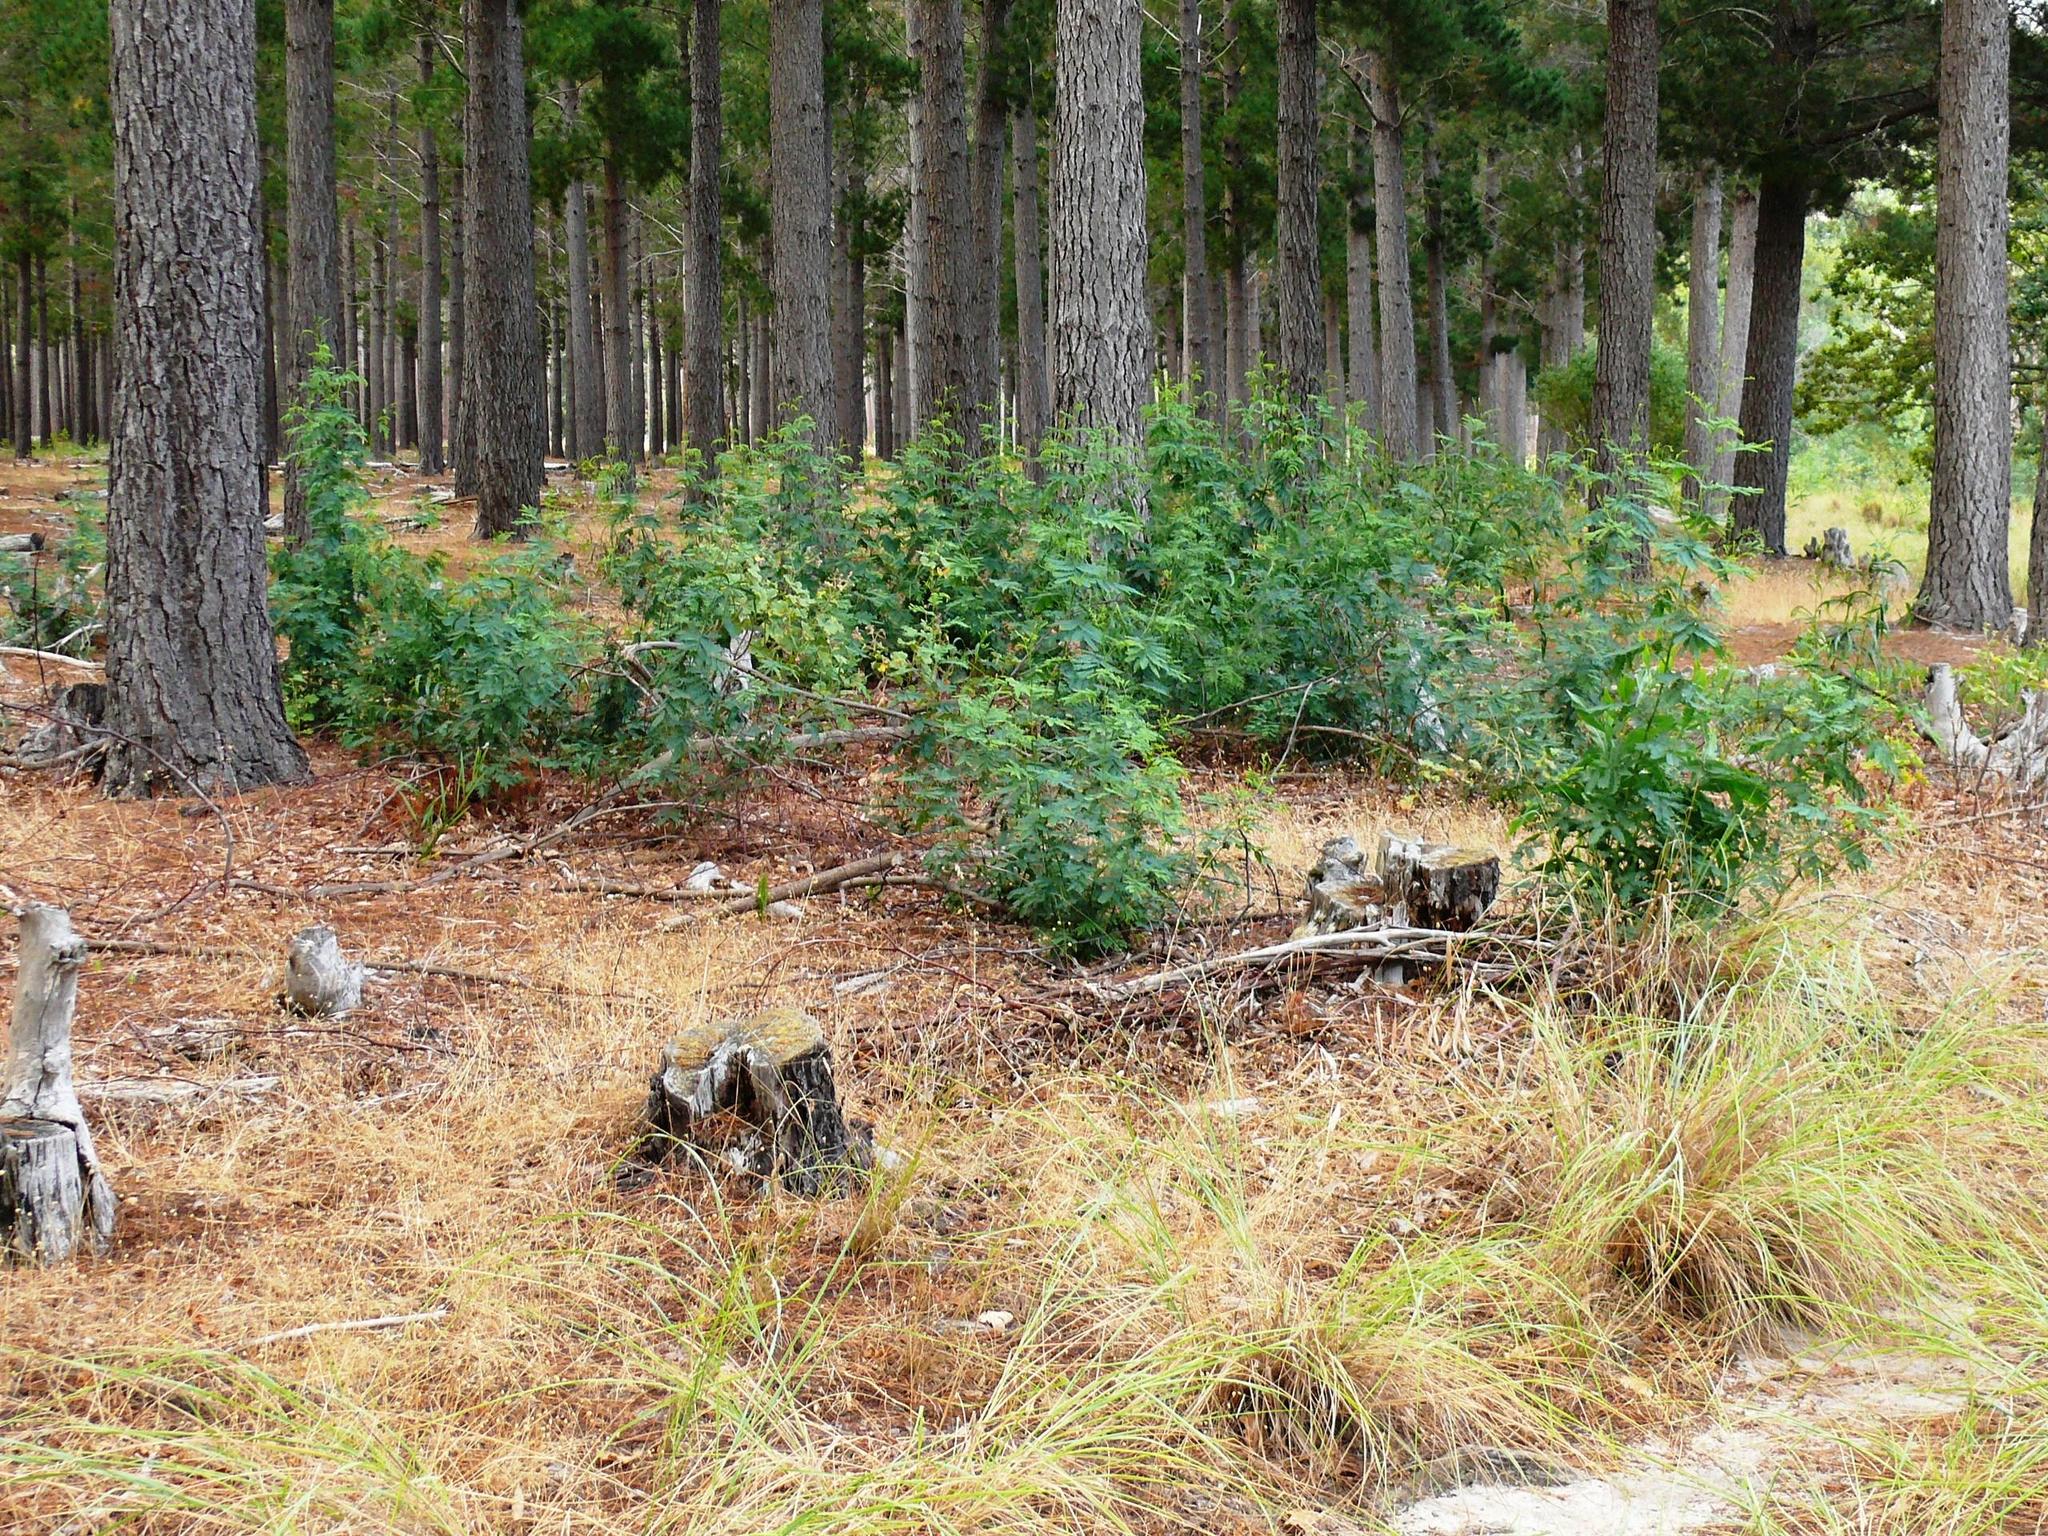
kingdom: Plantae
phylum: Tracheophyta
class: Magnoliopsida
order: Fabales
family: Fabaceae
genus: Acacia
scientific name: Acacia implexa
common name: Black wattle
